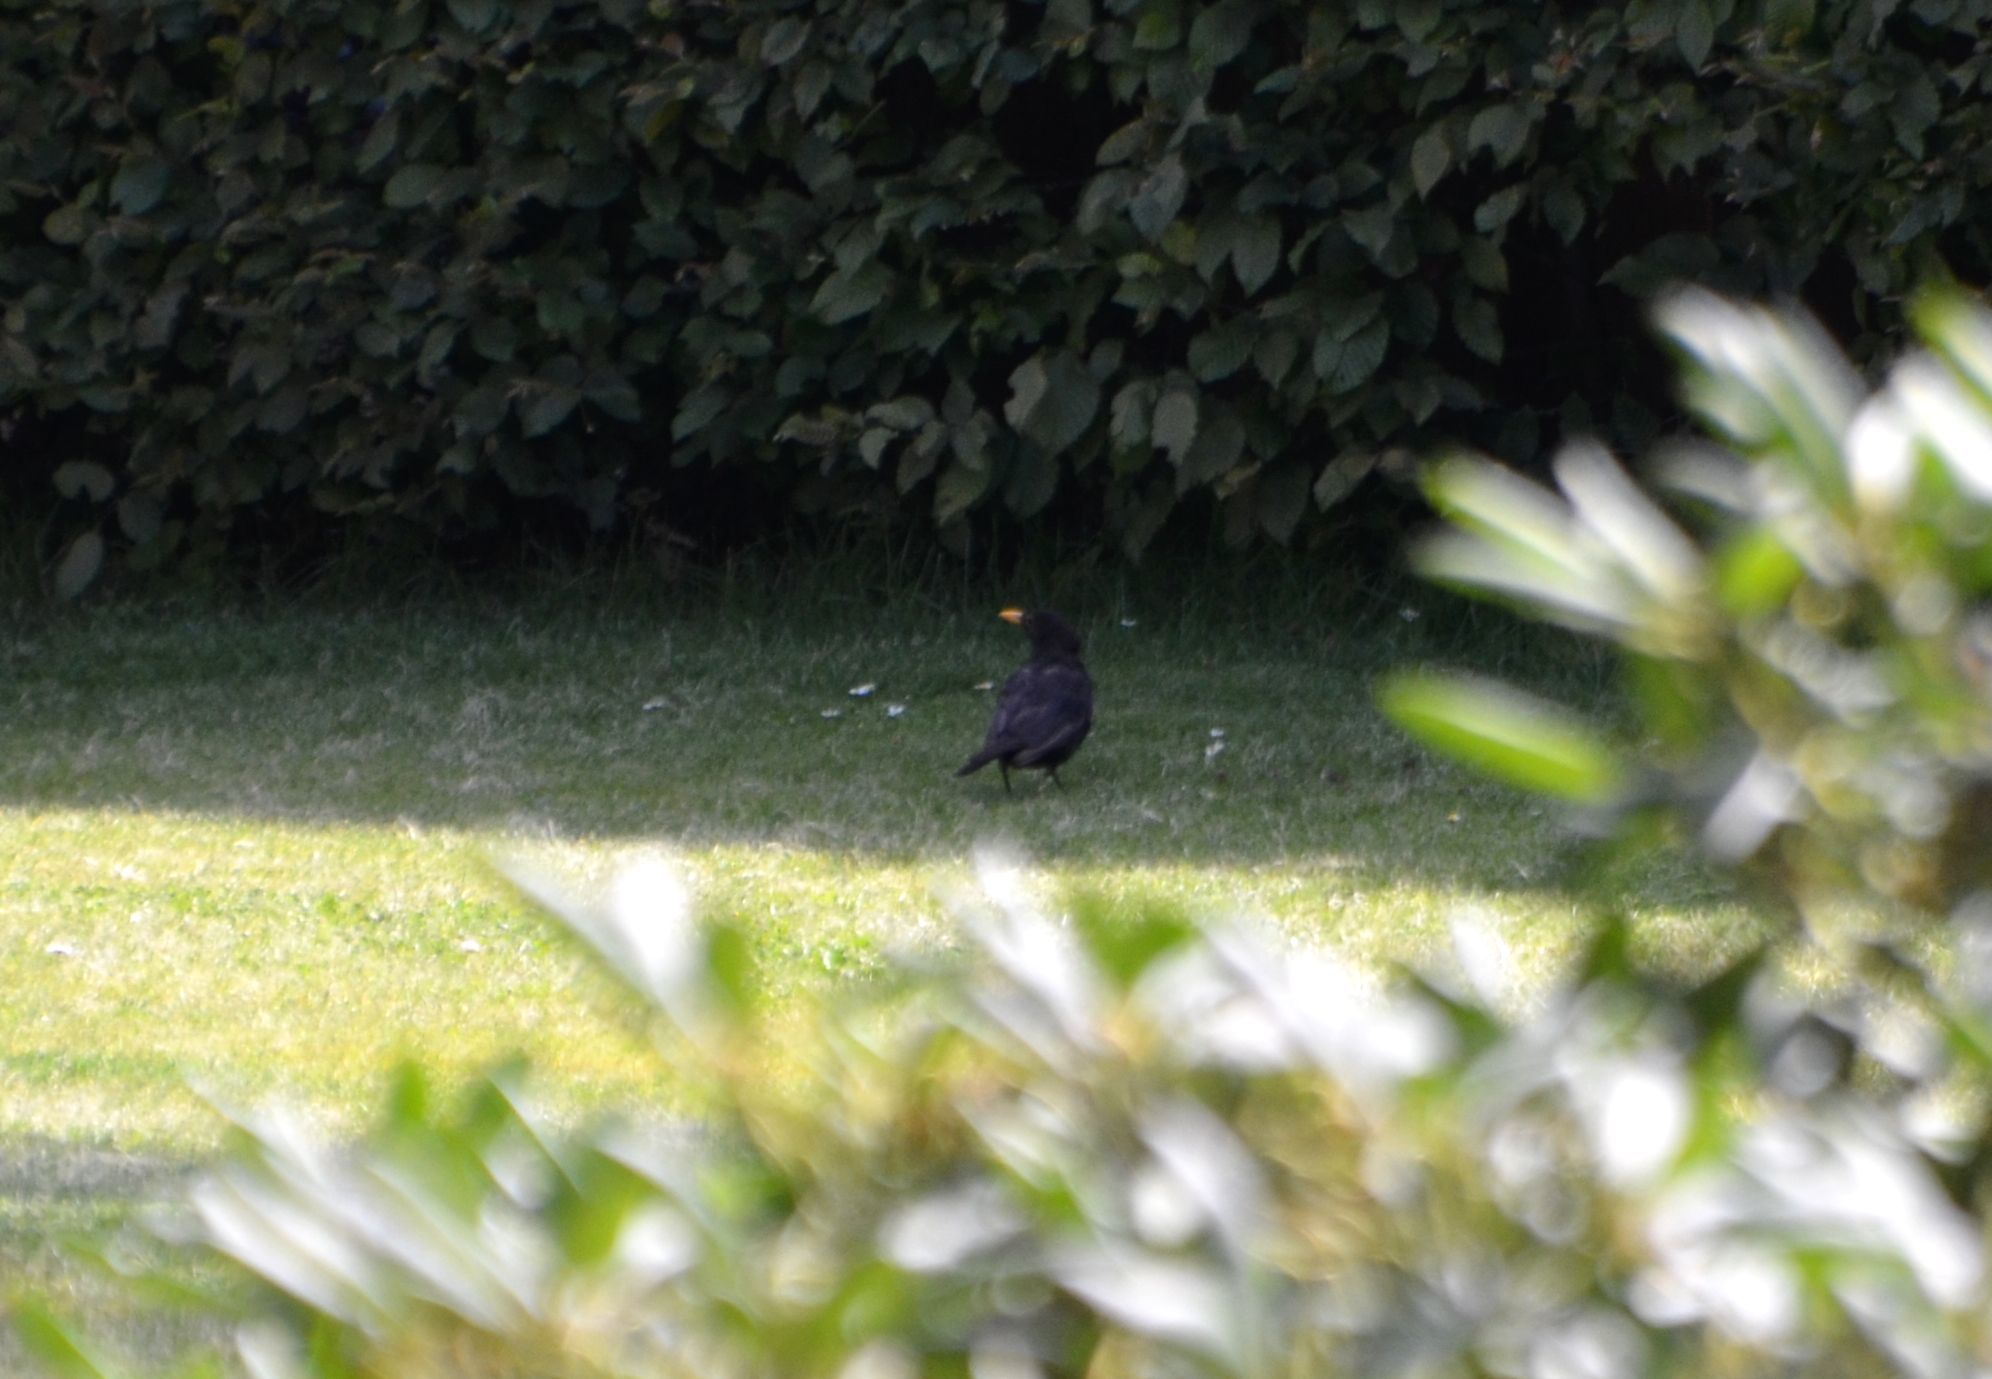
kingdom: Animalia
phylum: Chordata
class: Aves
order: Passeriformes
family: Turdidae
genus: Turdus
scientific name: Turdus merula
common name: Common blackbird
